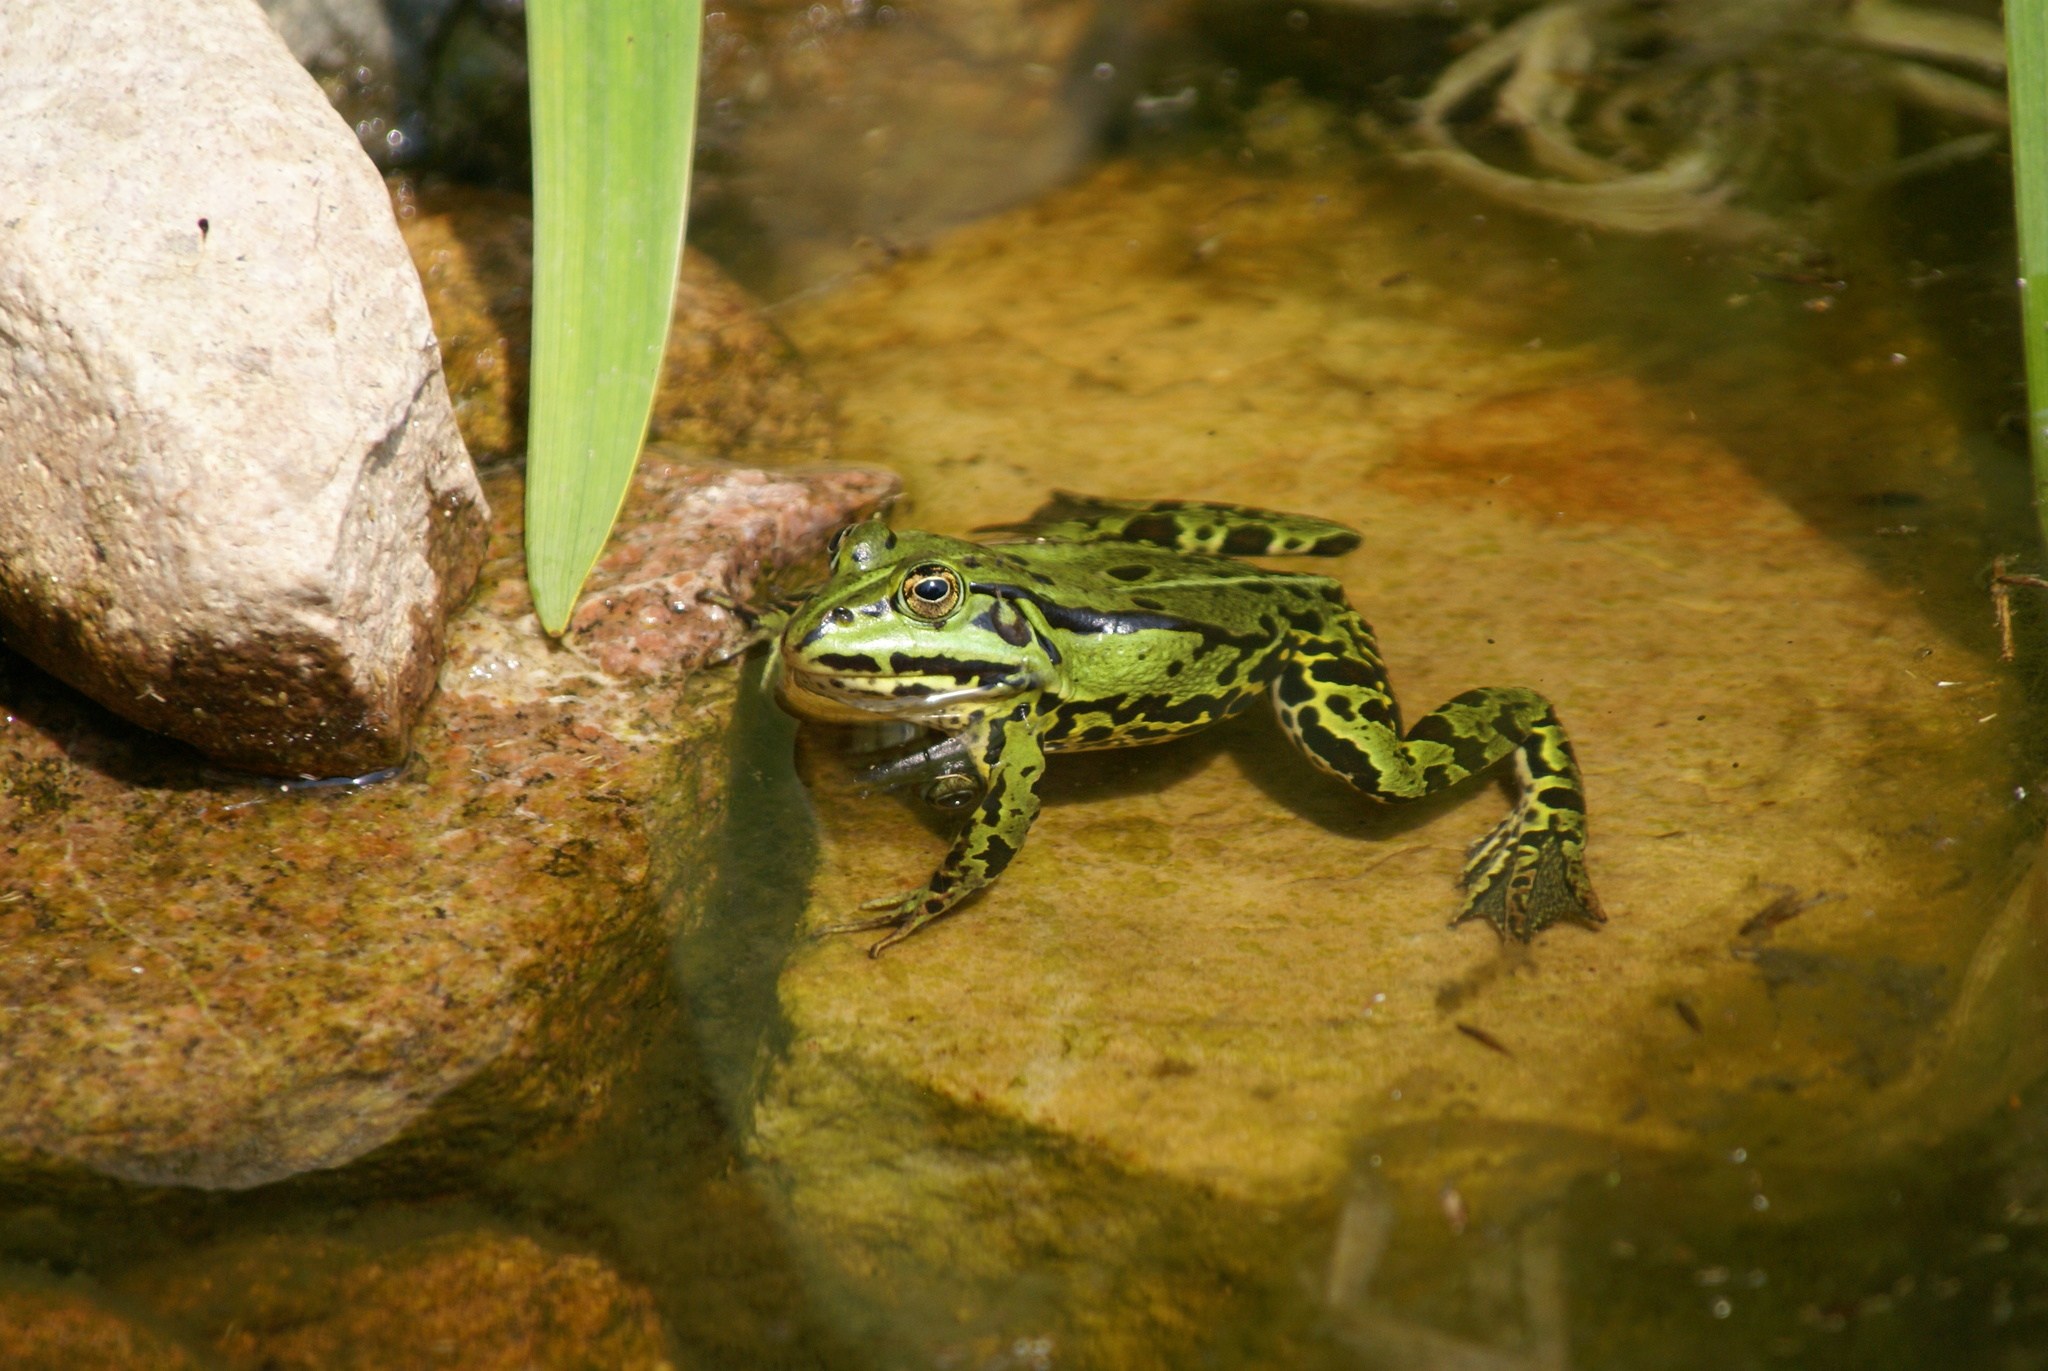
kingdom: Animalia
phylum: Chordata
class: Amphibia
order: Anura
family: Ranidae
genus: Pelophylax
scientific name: Pelophylax
